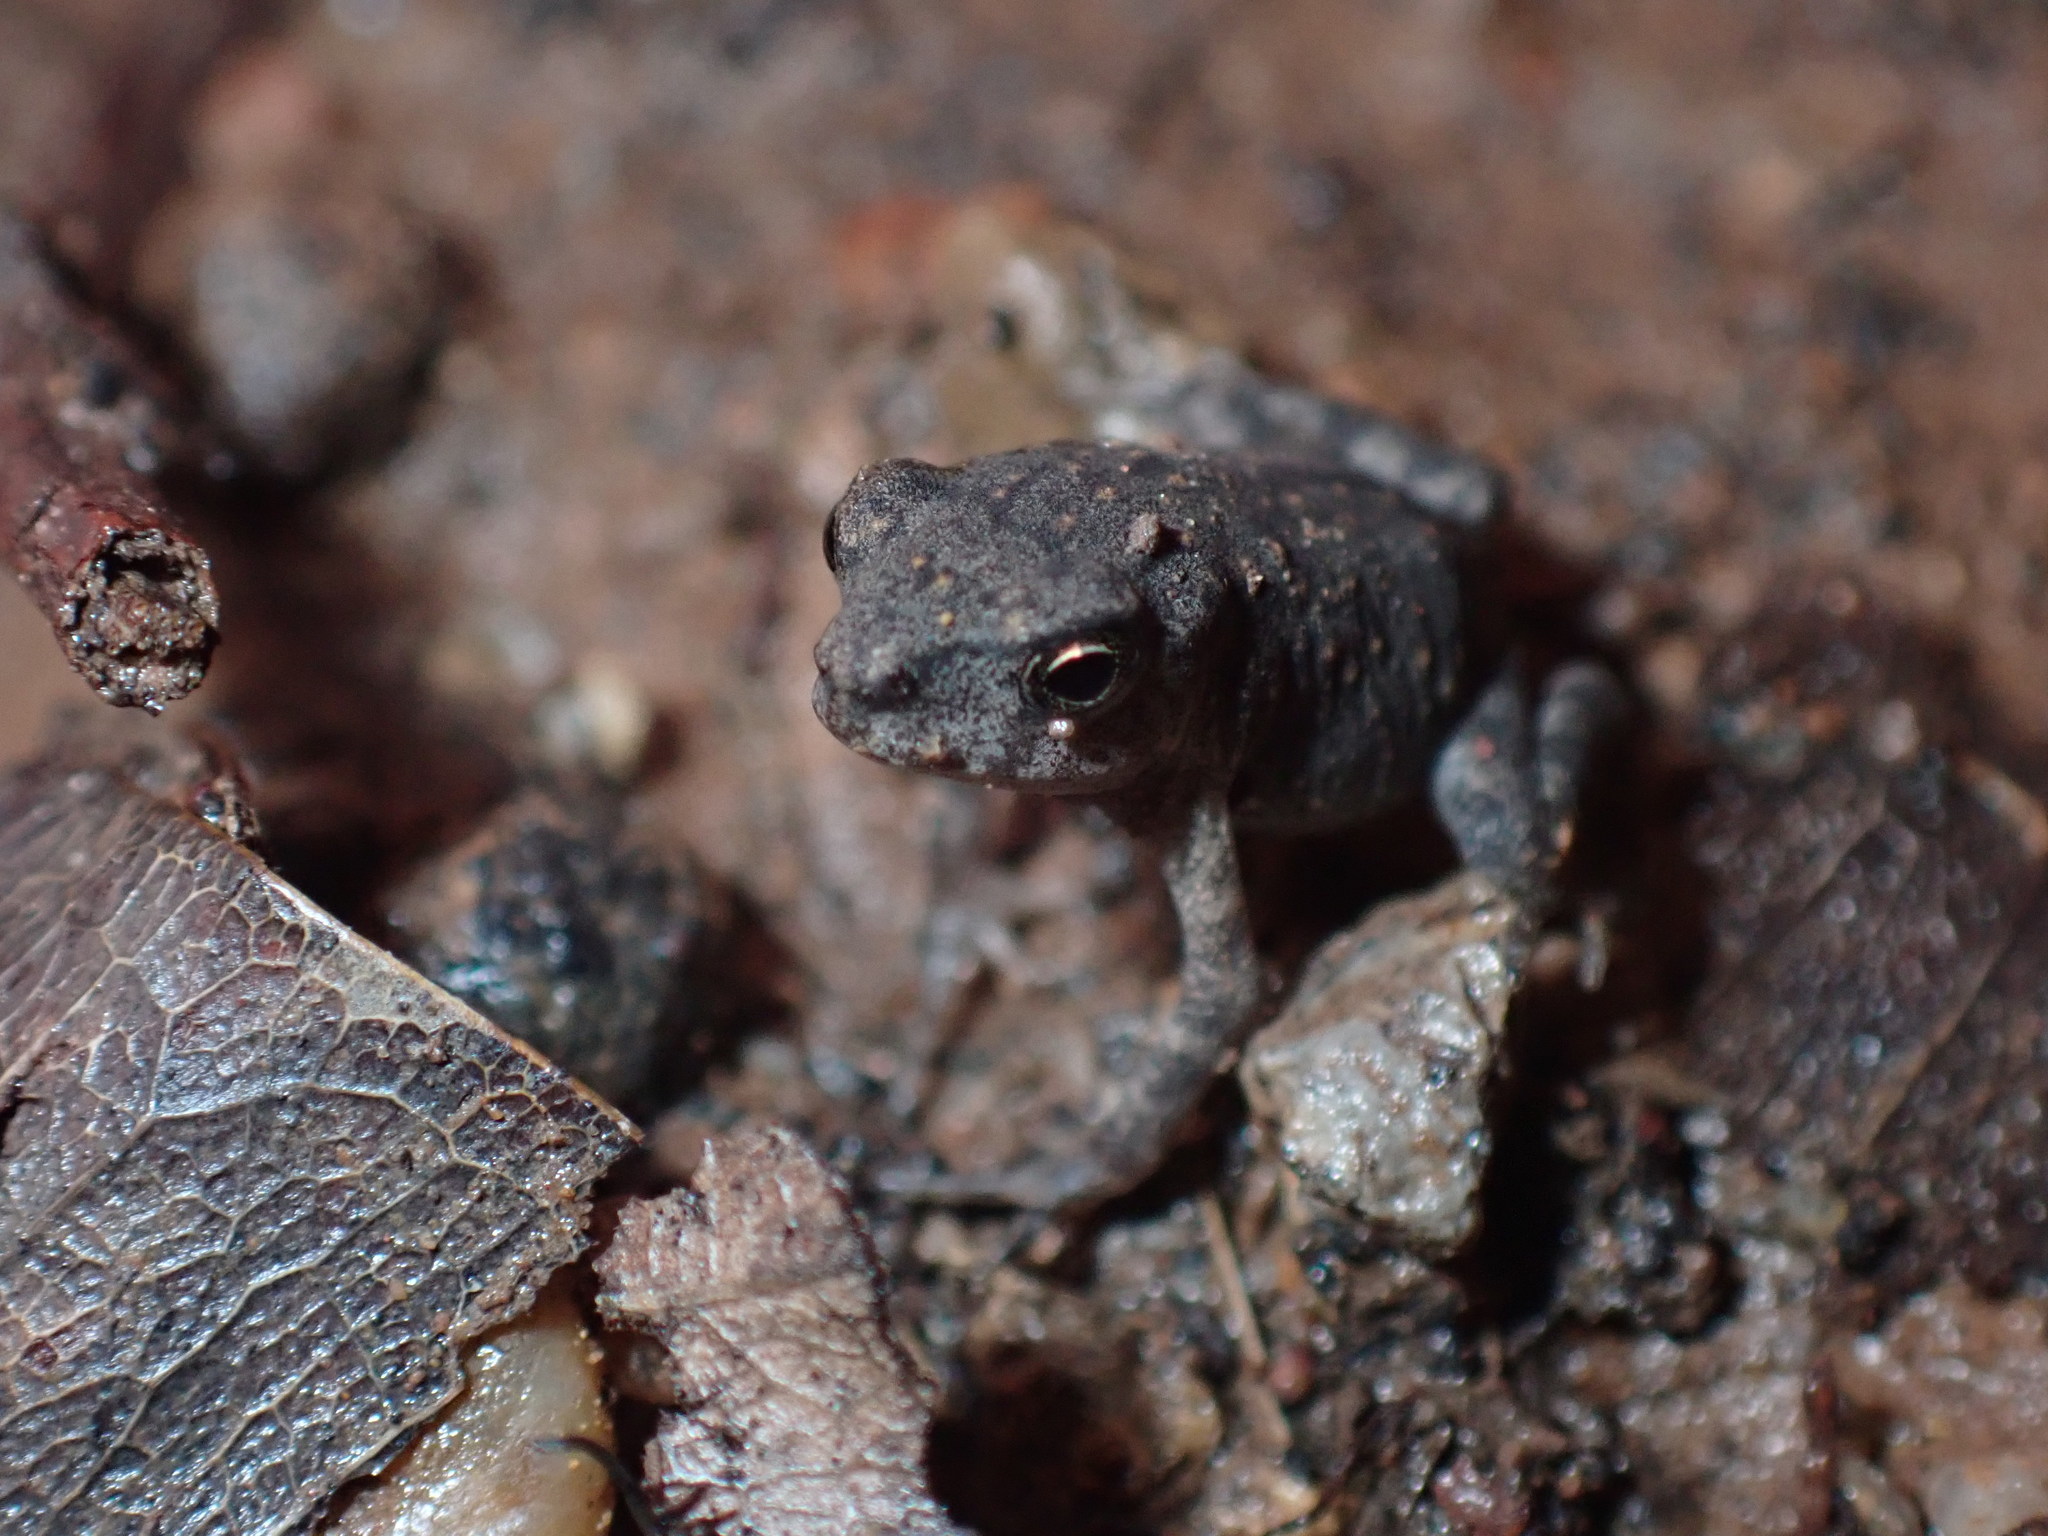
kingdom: Animalia
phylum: Chordata
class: Amphibia
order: Anura
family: Bufonidae
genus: Duttaphrynus
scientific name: Duttaphrynus melanostictus
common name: Common sunda toad
